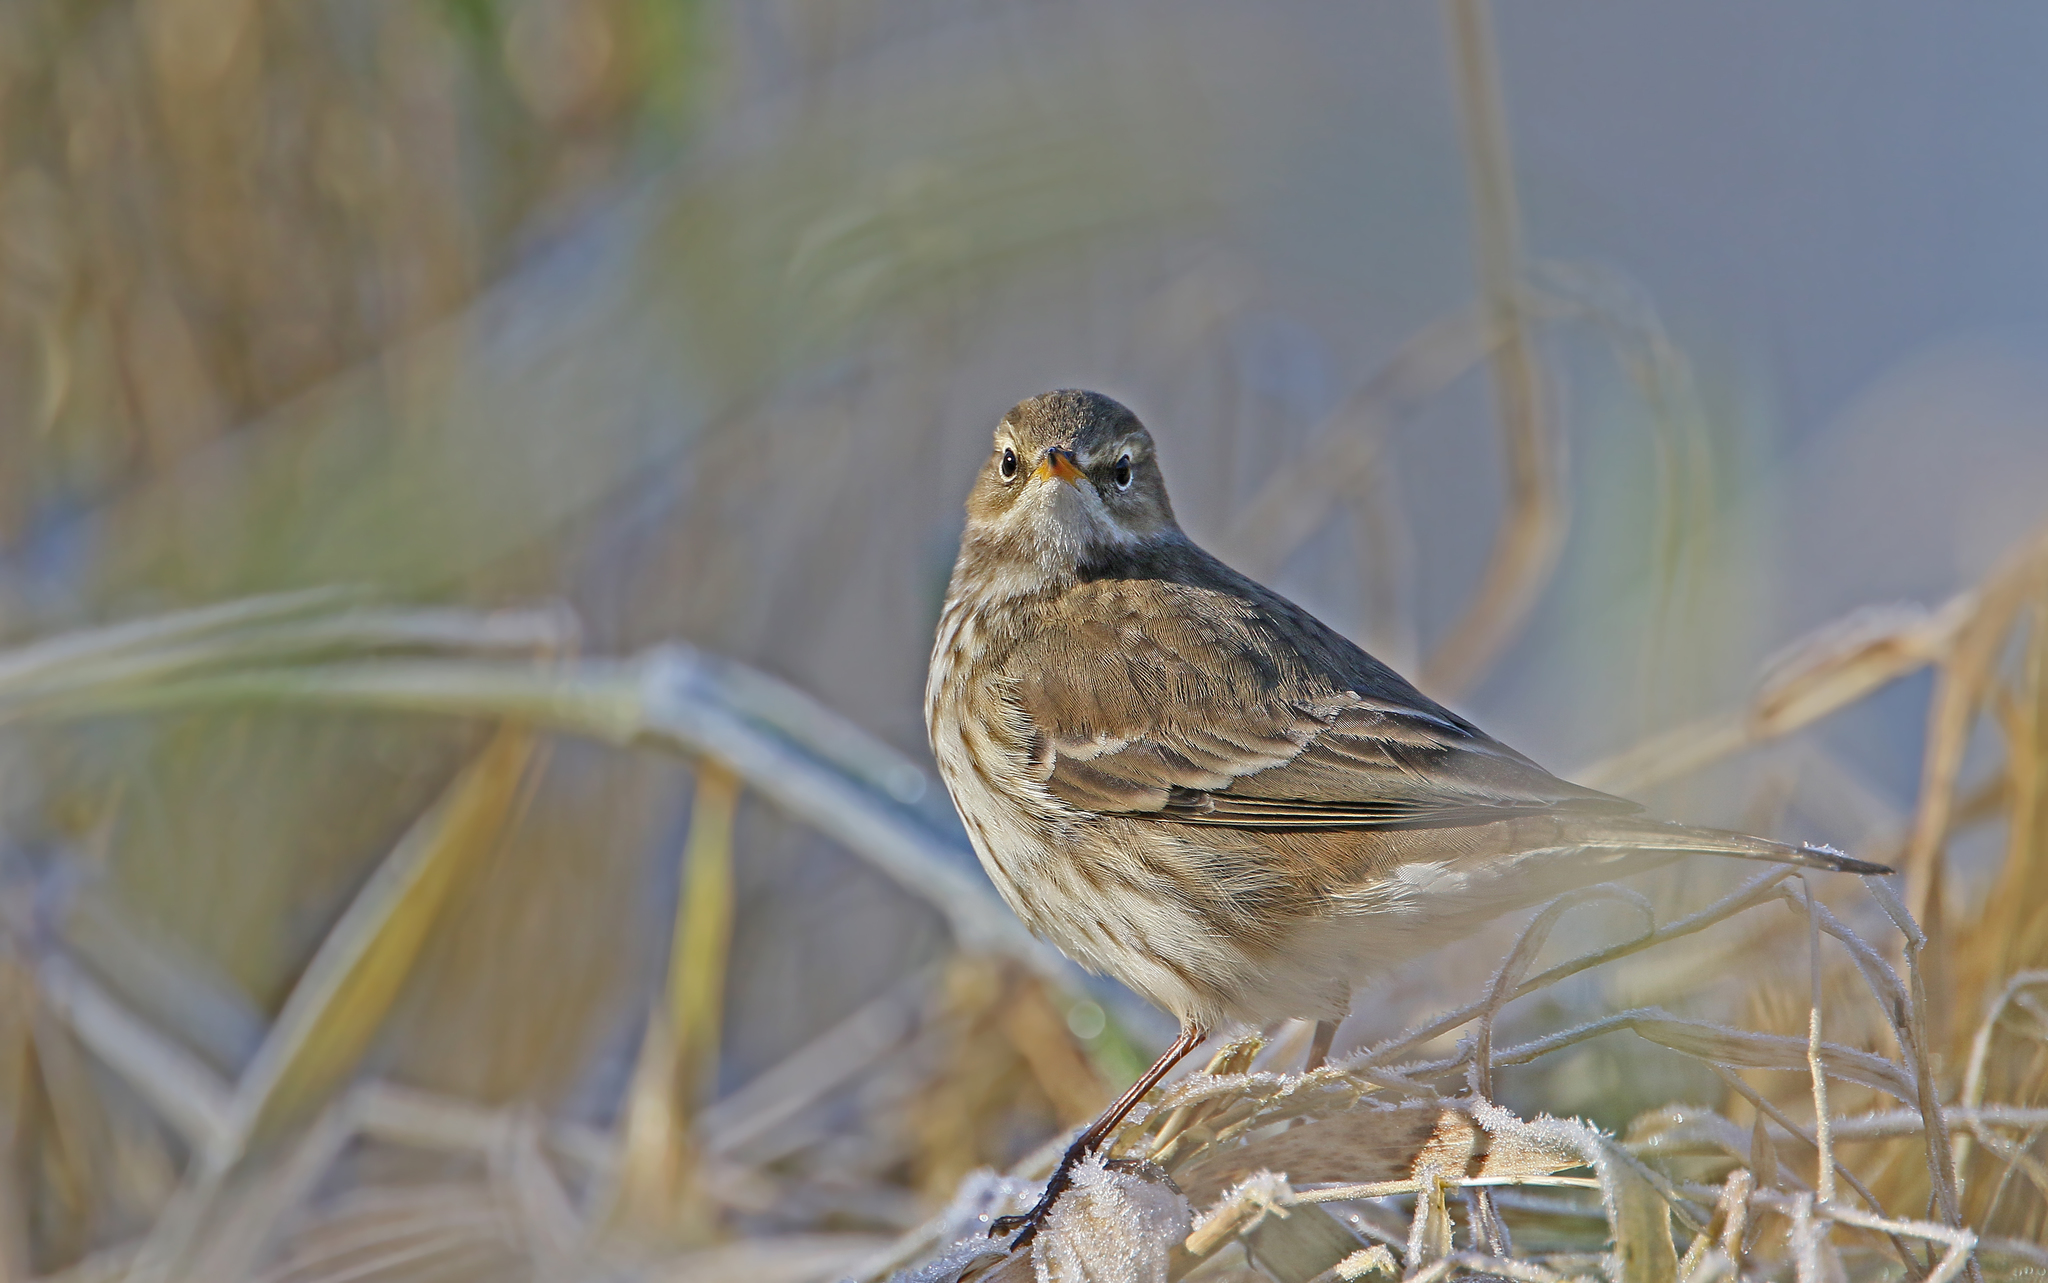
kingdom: Animalia
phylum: Chordata
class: Aves
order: Passeriformes
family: Motacillidae
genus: Anthus
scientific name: Anthus spinoletta
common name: Water pipit
